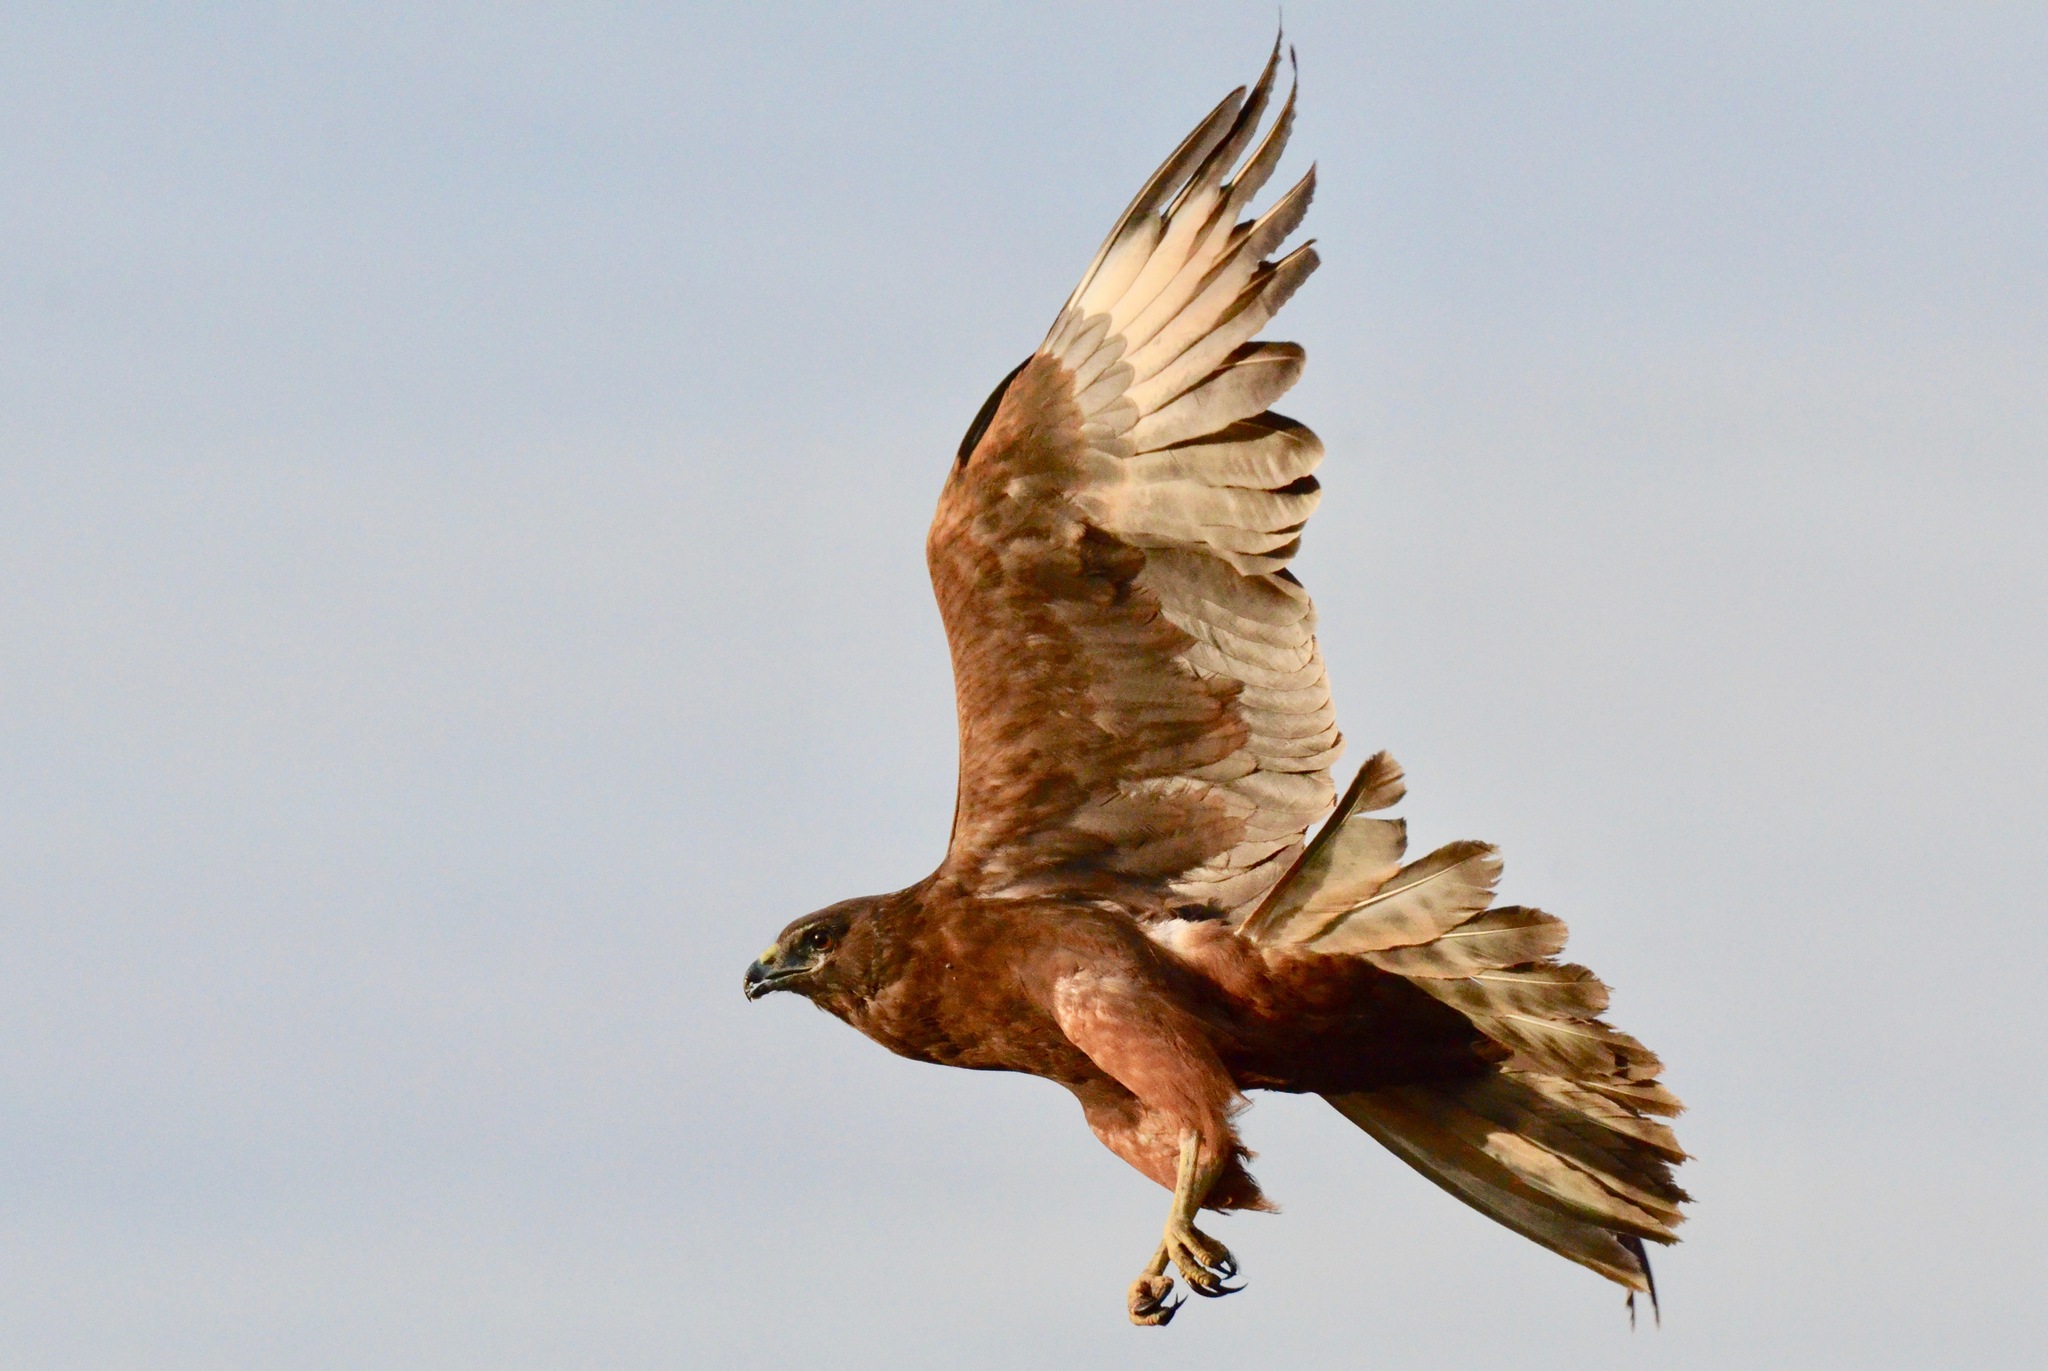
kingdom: Animalia
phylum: Chordata
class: Aves
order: Accipitriformes
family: Accipitridae
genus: Circus
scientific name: Circus approximans
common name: Swamp harrier
